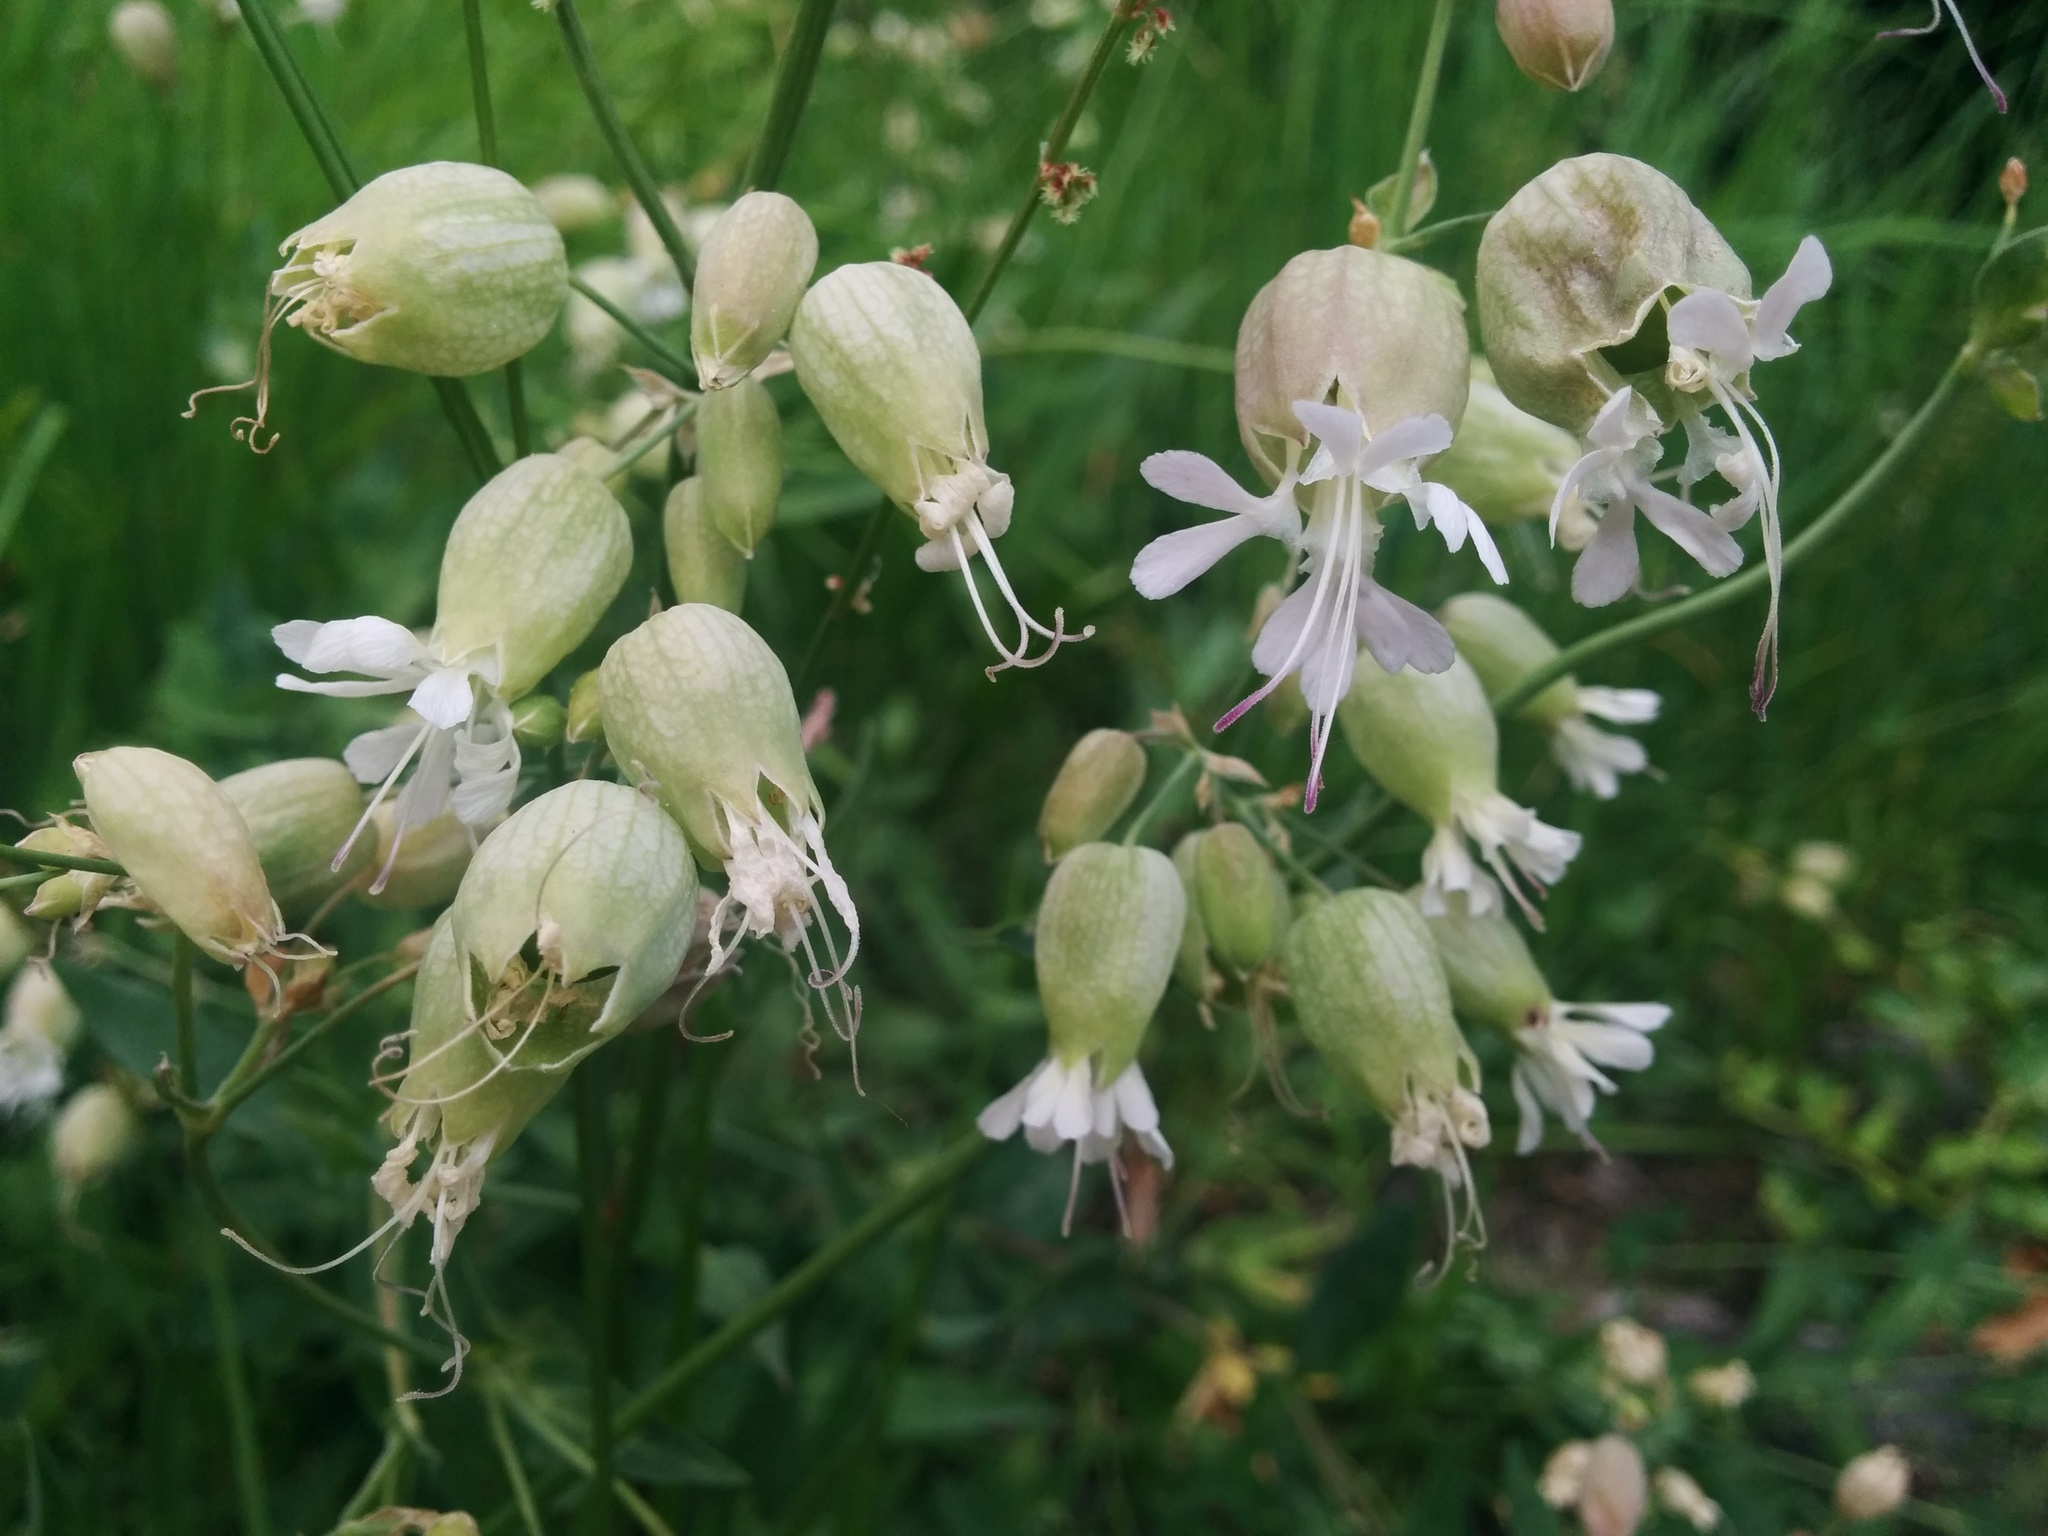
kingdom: Plantae
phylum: Tracheophyta
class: Magnoliopsida
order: Caryophyllales
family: Caryophyllaceae
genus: Silene
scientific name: Silene vulgaris
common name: Bladder campion
